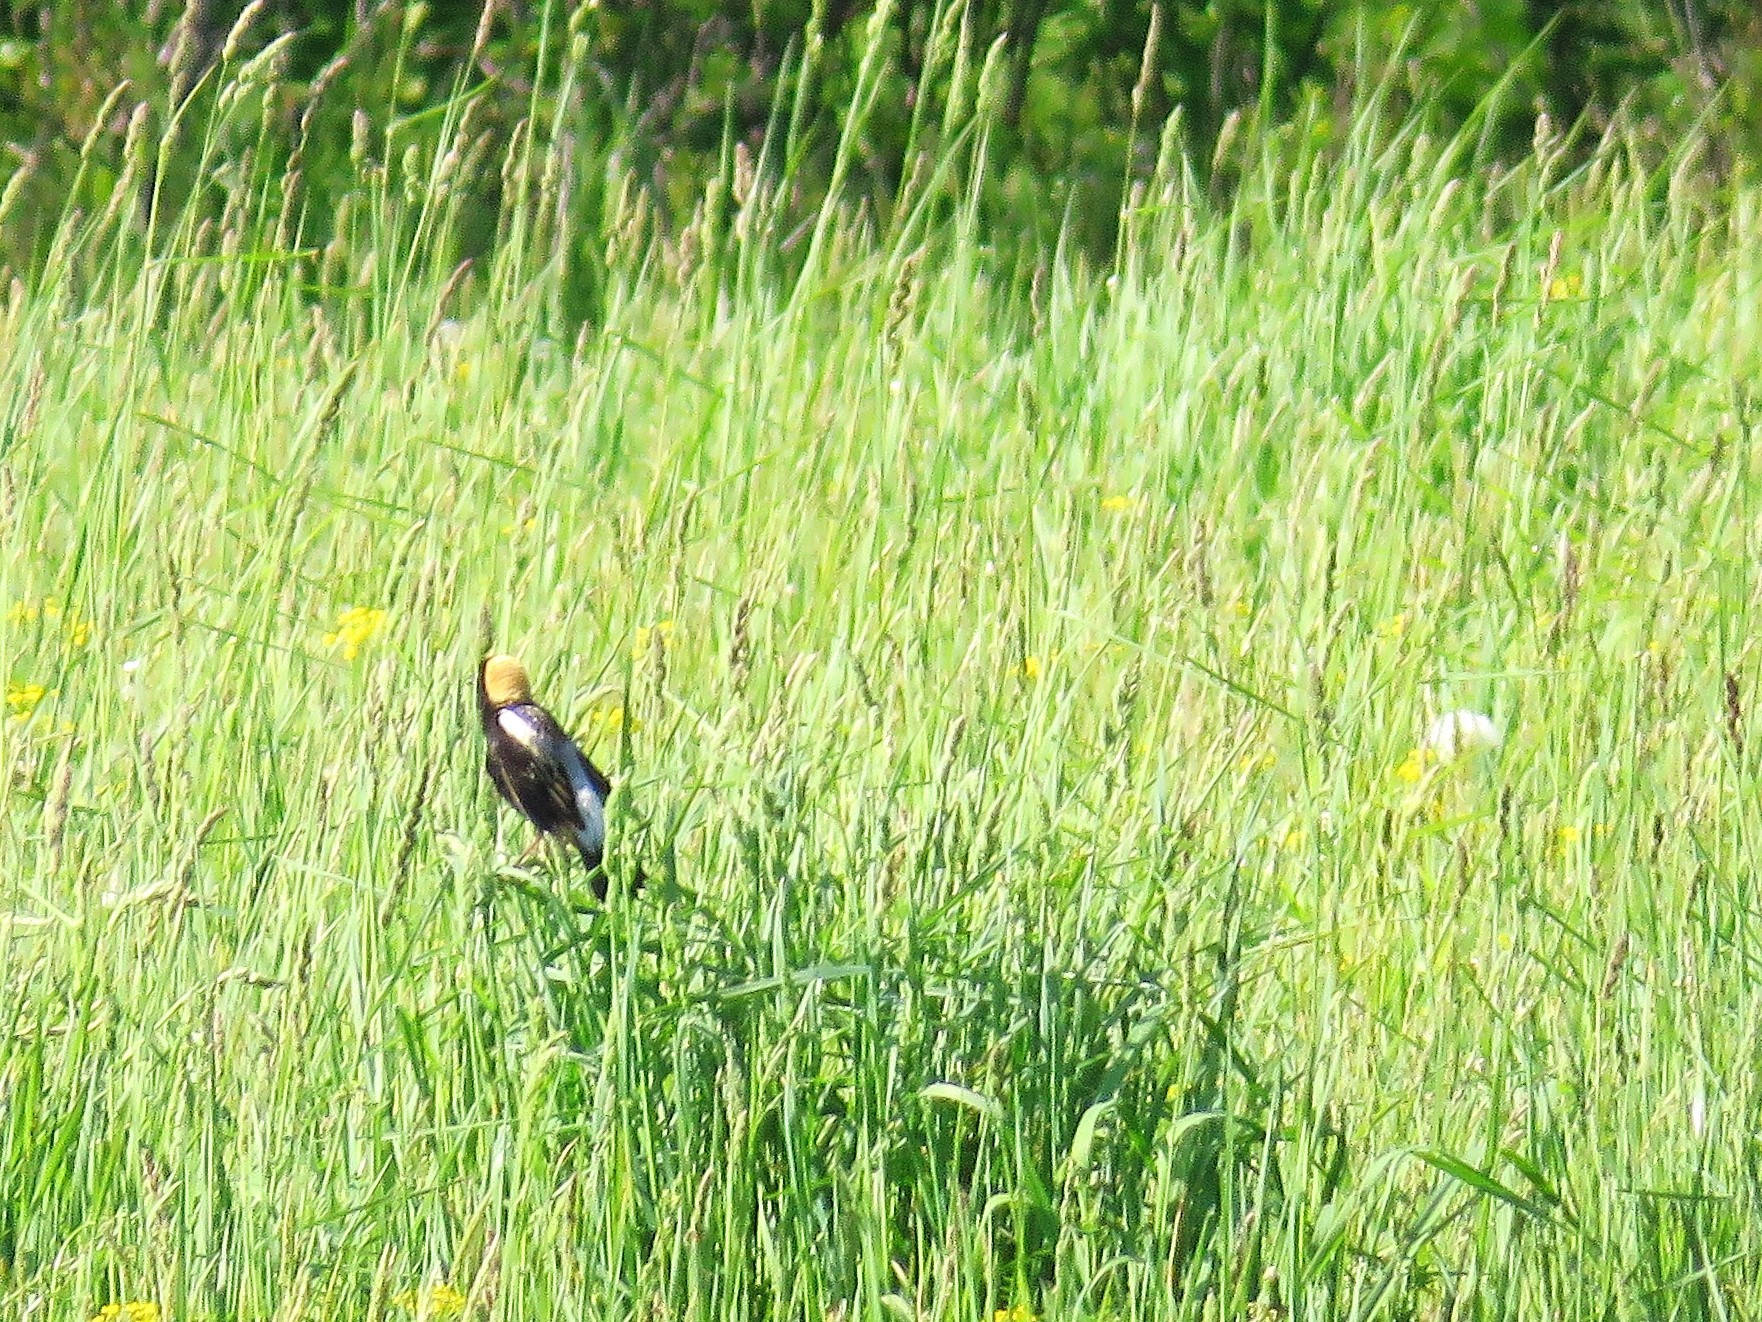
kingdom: Animalia
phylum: Chordata
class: Aves
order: Passeriformes
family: Icteridae
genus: Dolichonyx
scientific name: Dolichonyx oryzivorus
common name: Bobolink
